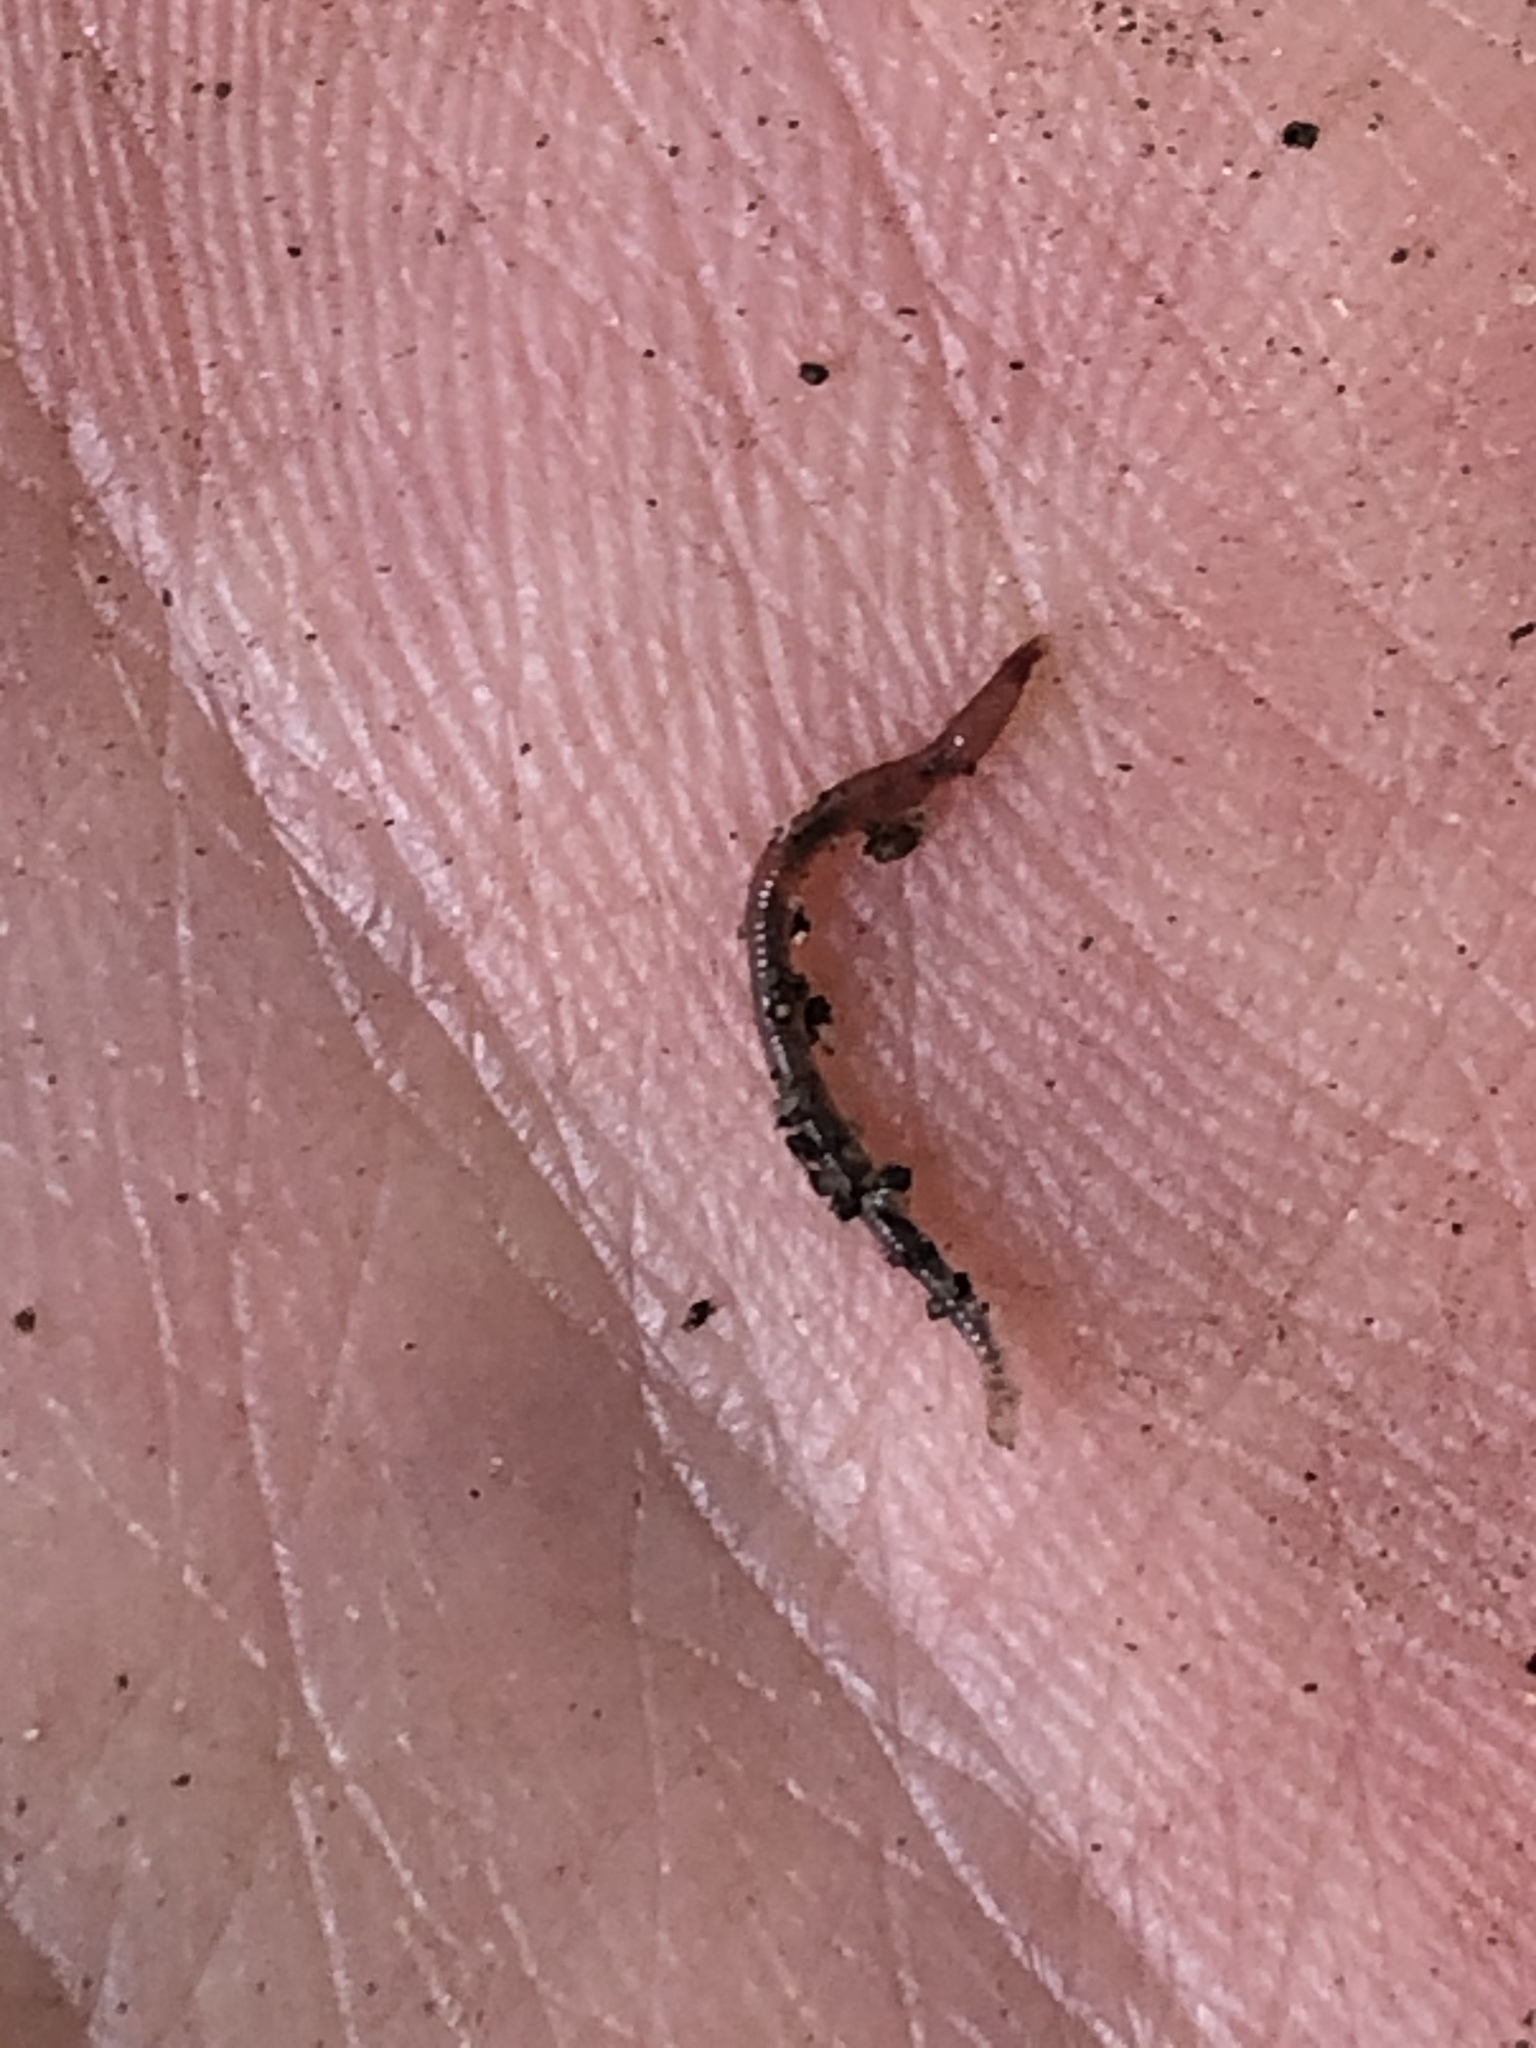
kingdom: Animalia
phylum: Annelida
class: Clitellata
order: Crassiclitellata
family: Lumbricidae
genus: Lumbricus
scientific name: Lumbricus terrestris
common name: Common earthworm
